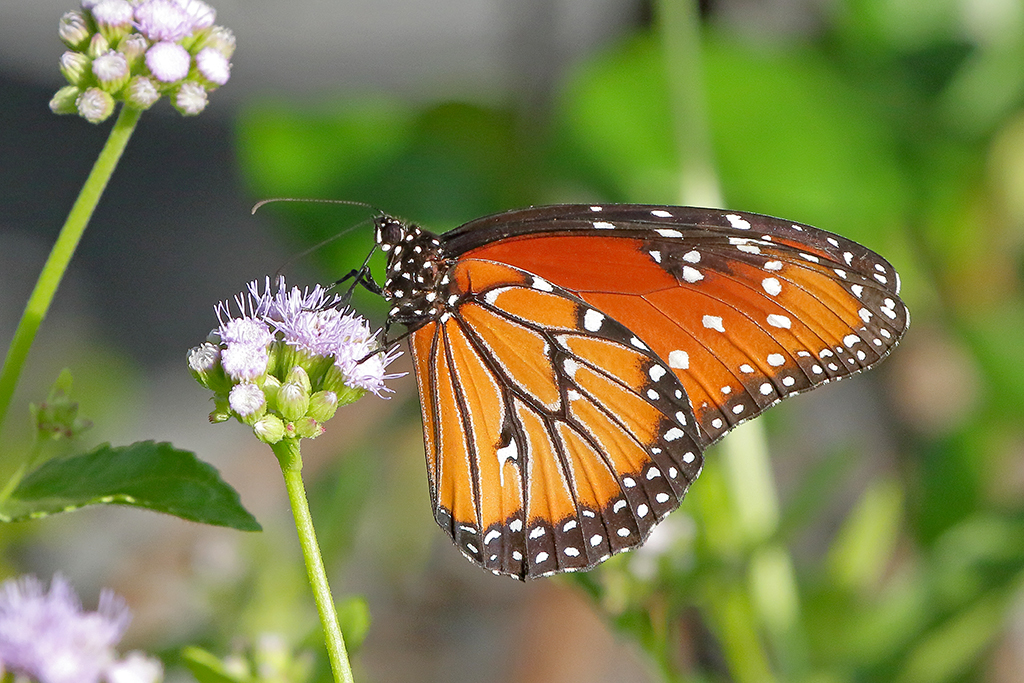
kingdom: Animalia
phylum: Arthropoda
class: Insecta
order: Lepidoptera
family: Nymphalidae
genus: Danaus
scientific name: Danaus gilippus
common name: Queen
